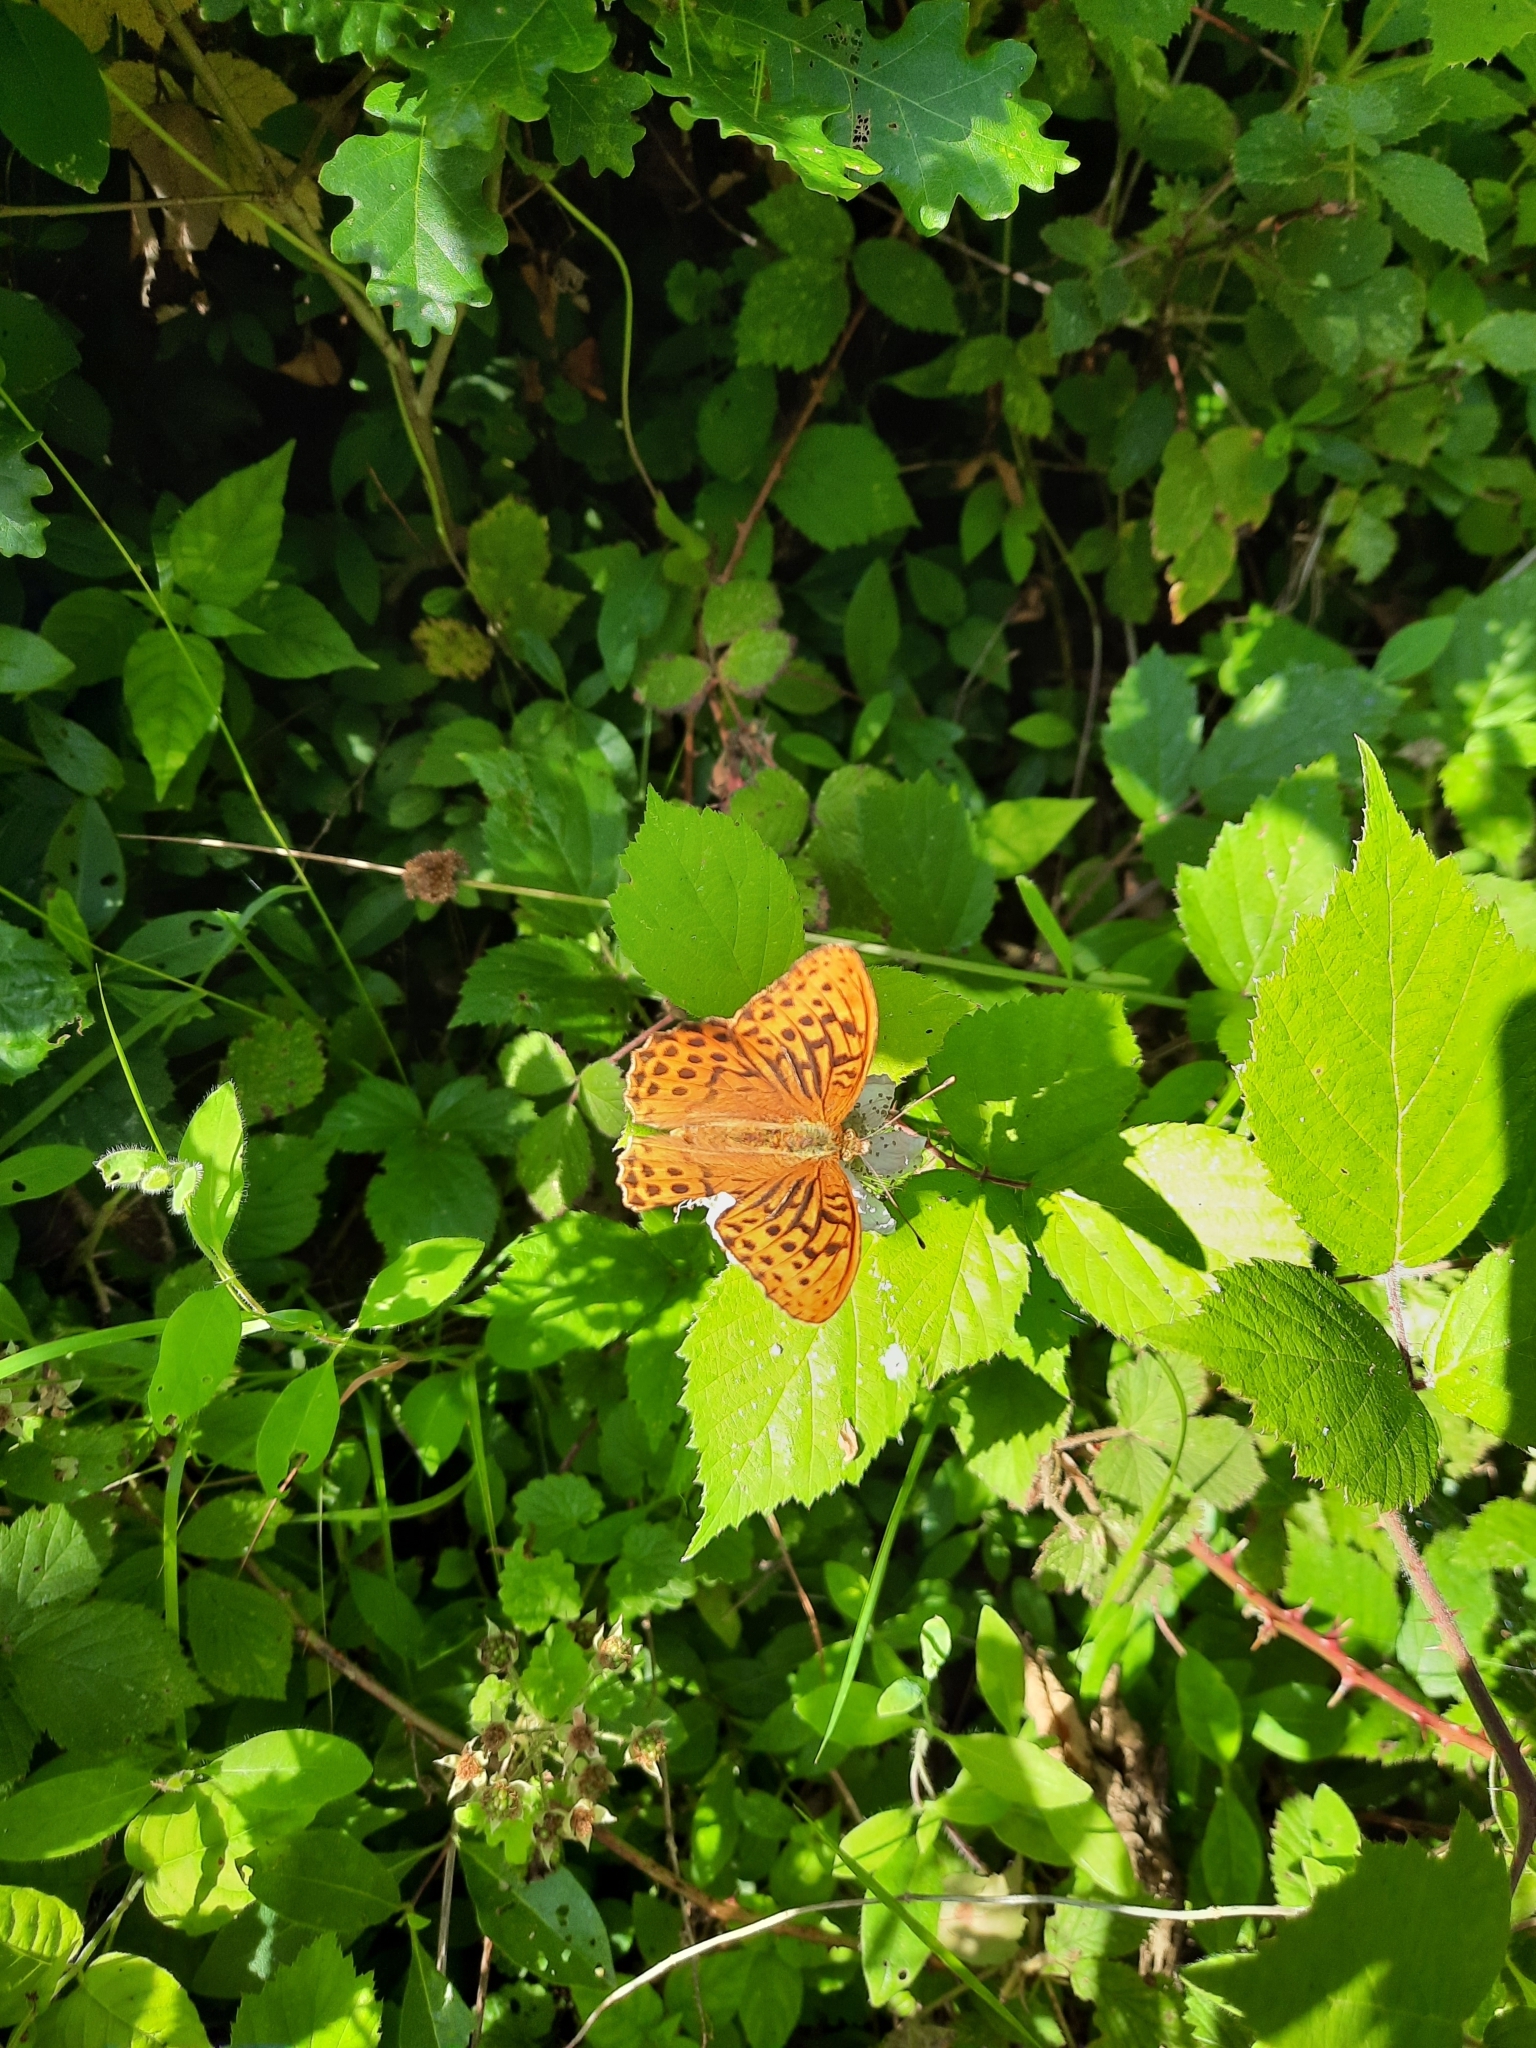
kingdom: Animalia
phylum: Arthropoda
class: Insecta
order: Lepidoptera
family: Nymphalidae
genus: Argynnis
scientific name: Argynnis paphia
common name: Silver-washed fritillary
